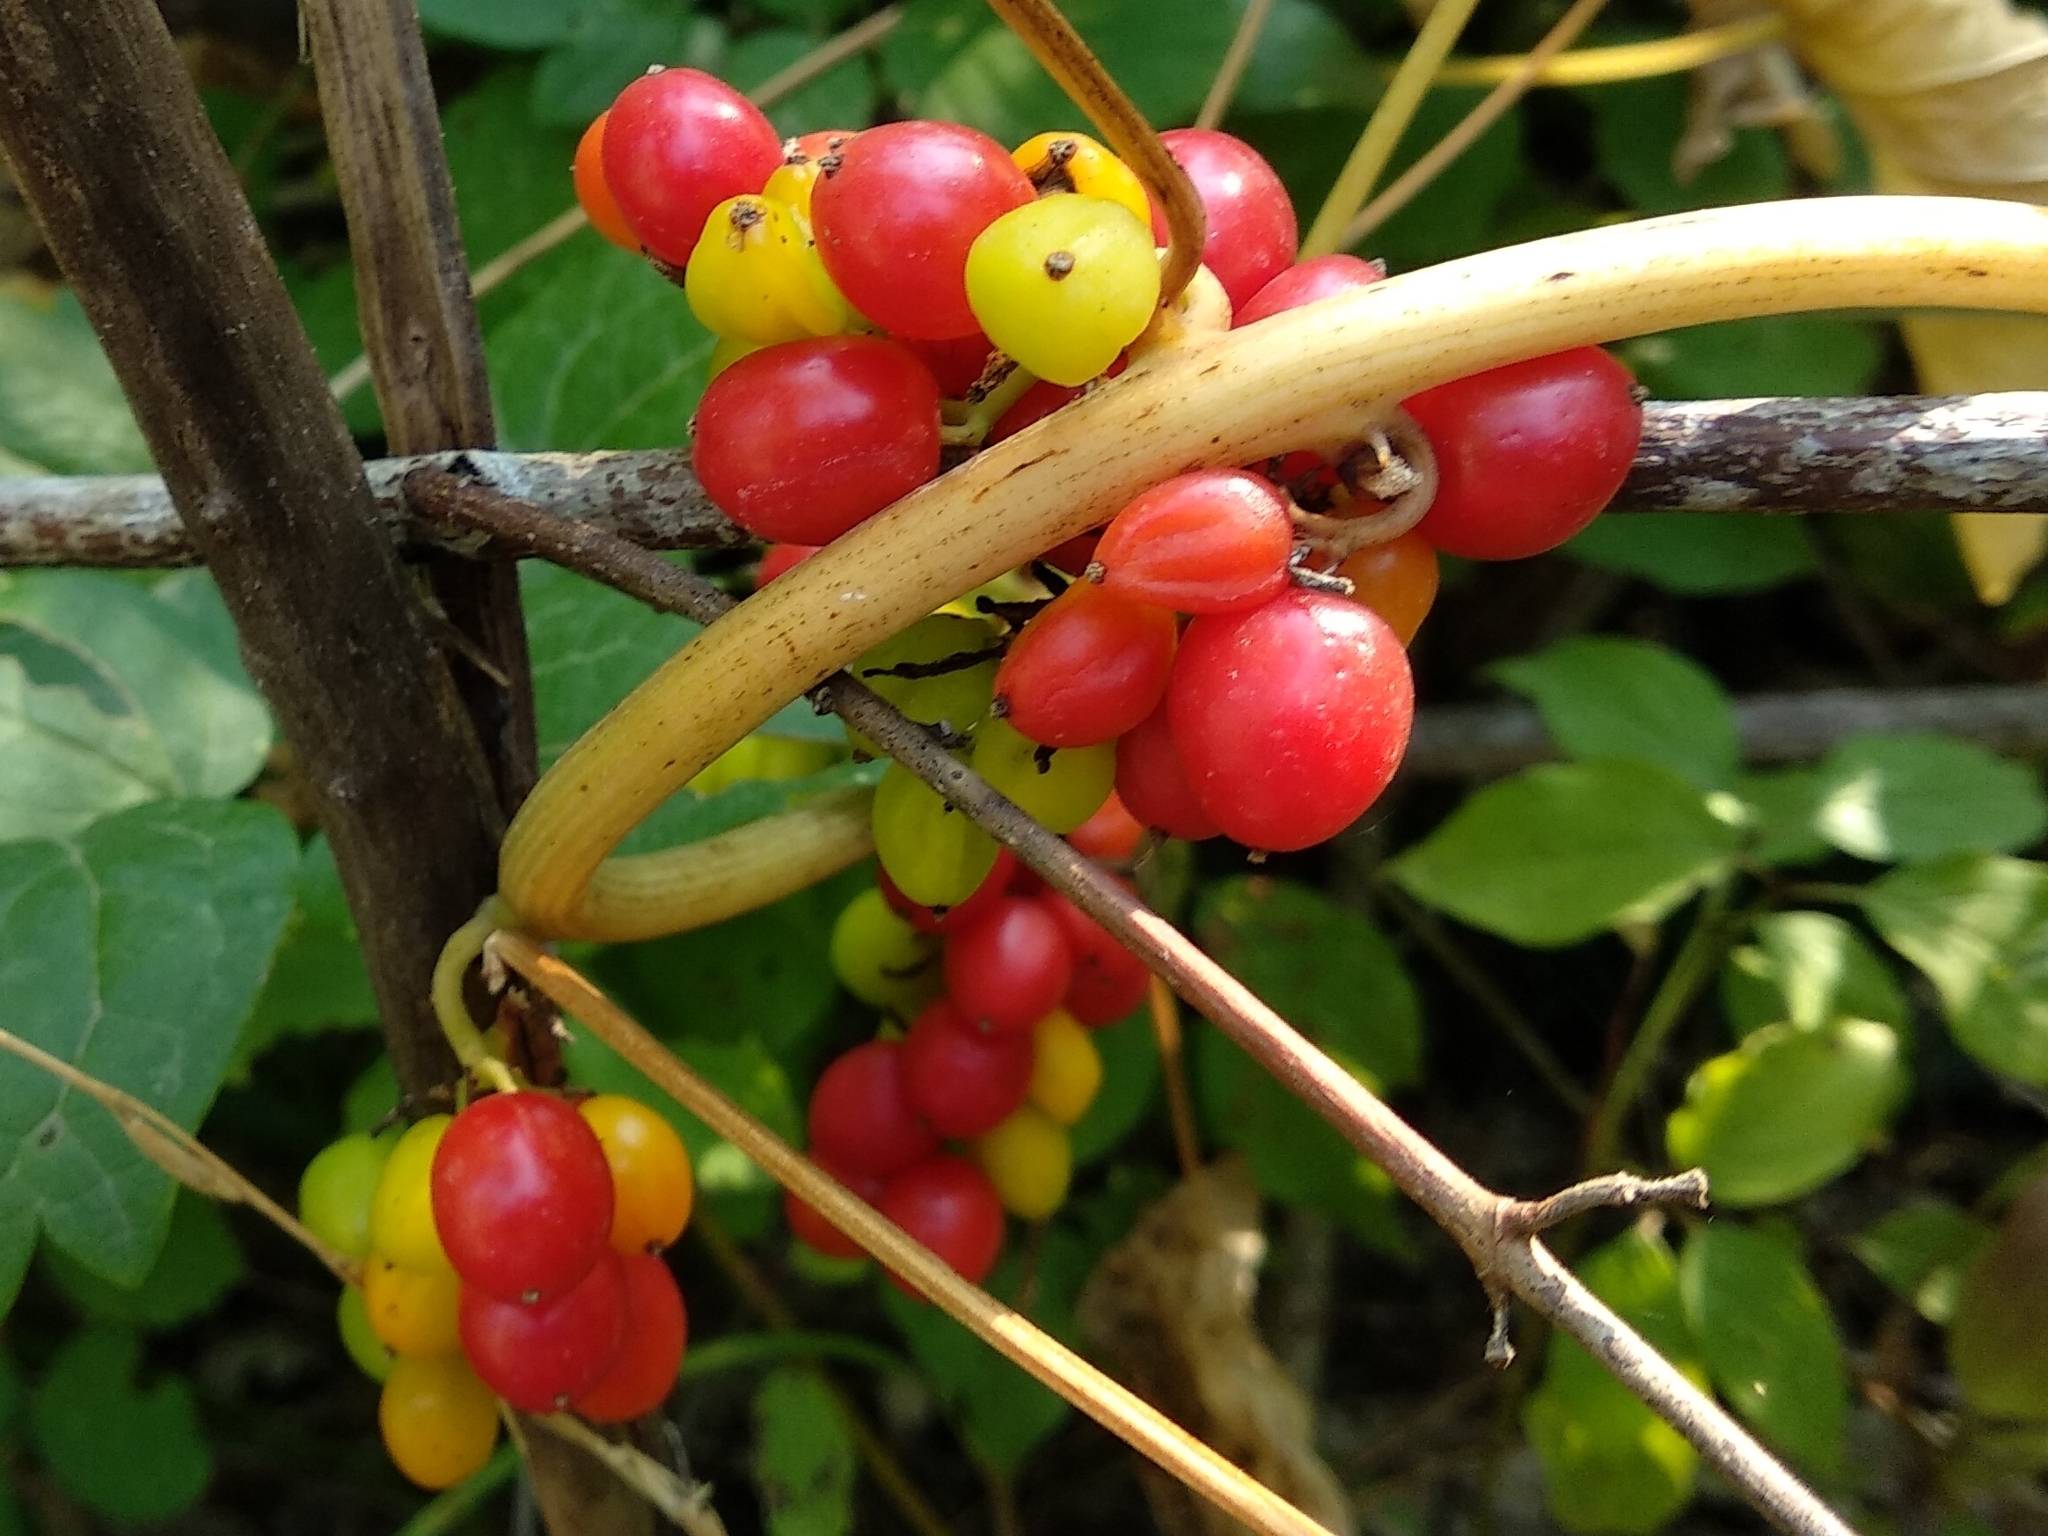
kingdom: Plantae
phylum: Tracheophyta
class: Liliopsida
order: Dioscoreales
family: Dioscoreaceae
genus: Dioscorea
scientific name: Dioscorea communis
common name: Black-bindweed
